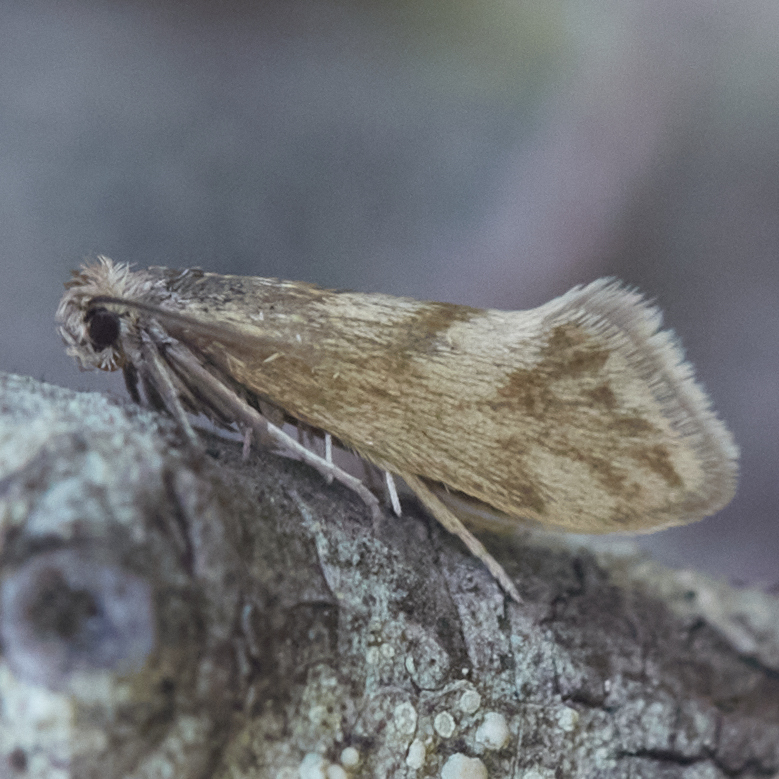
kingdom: Animalia
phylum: Arthropoda
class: Insecta
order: Lepidoptera
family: Prodoxidae
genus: Greya
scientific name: Greya obscura
